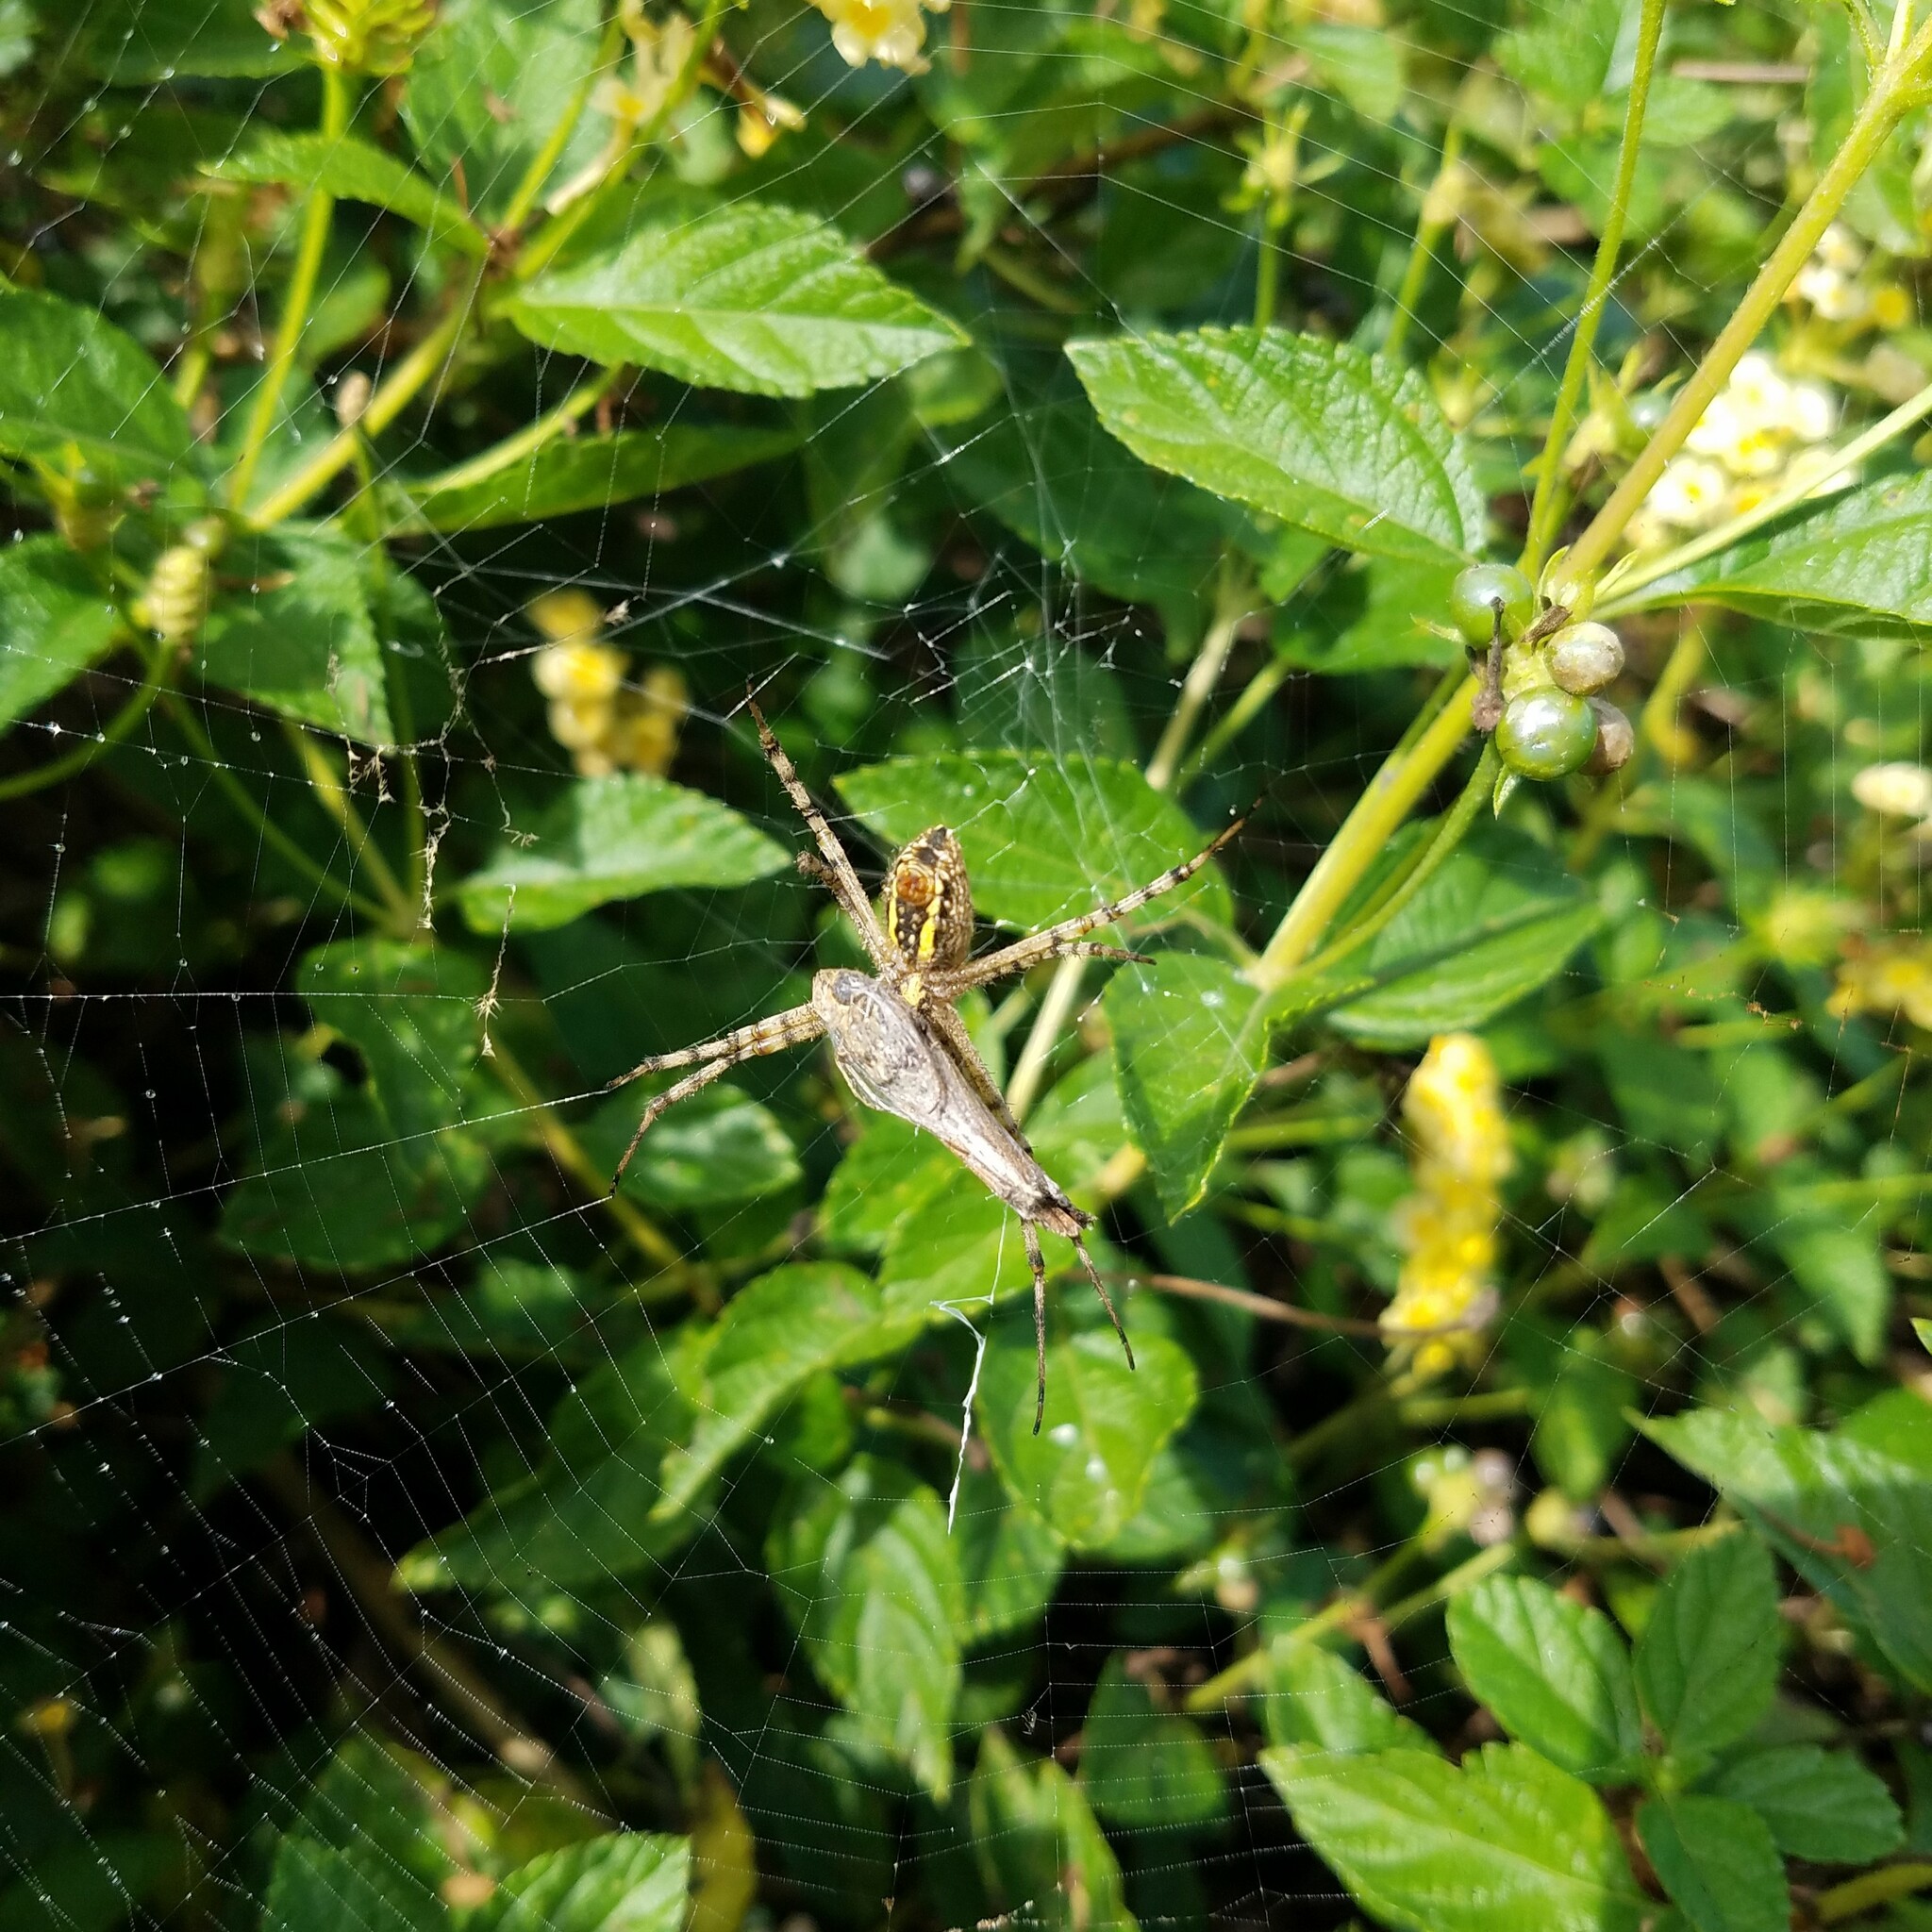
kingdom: Animalia
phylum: Arthropoda
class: Arachnida
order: Araneae
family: Araneidae
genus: Argiope
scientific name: Argiope trifasciata
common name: Banded garden spider
